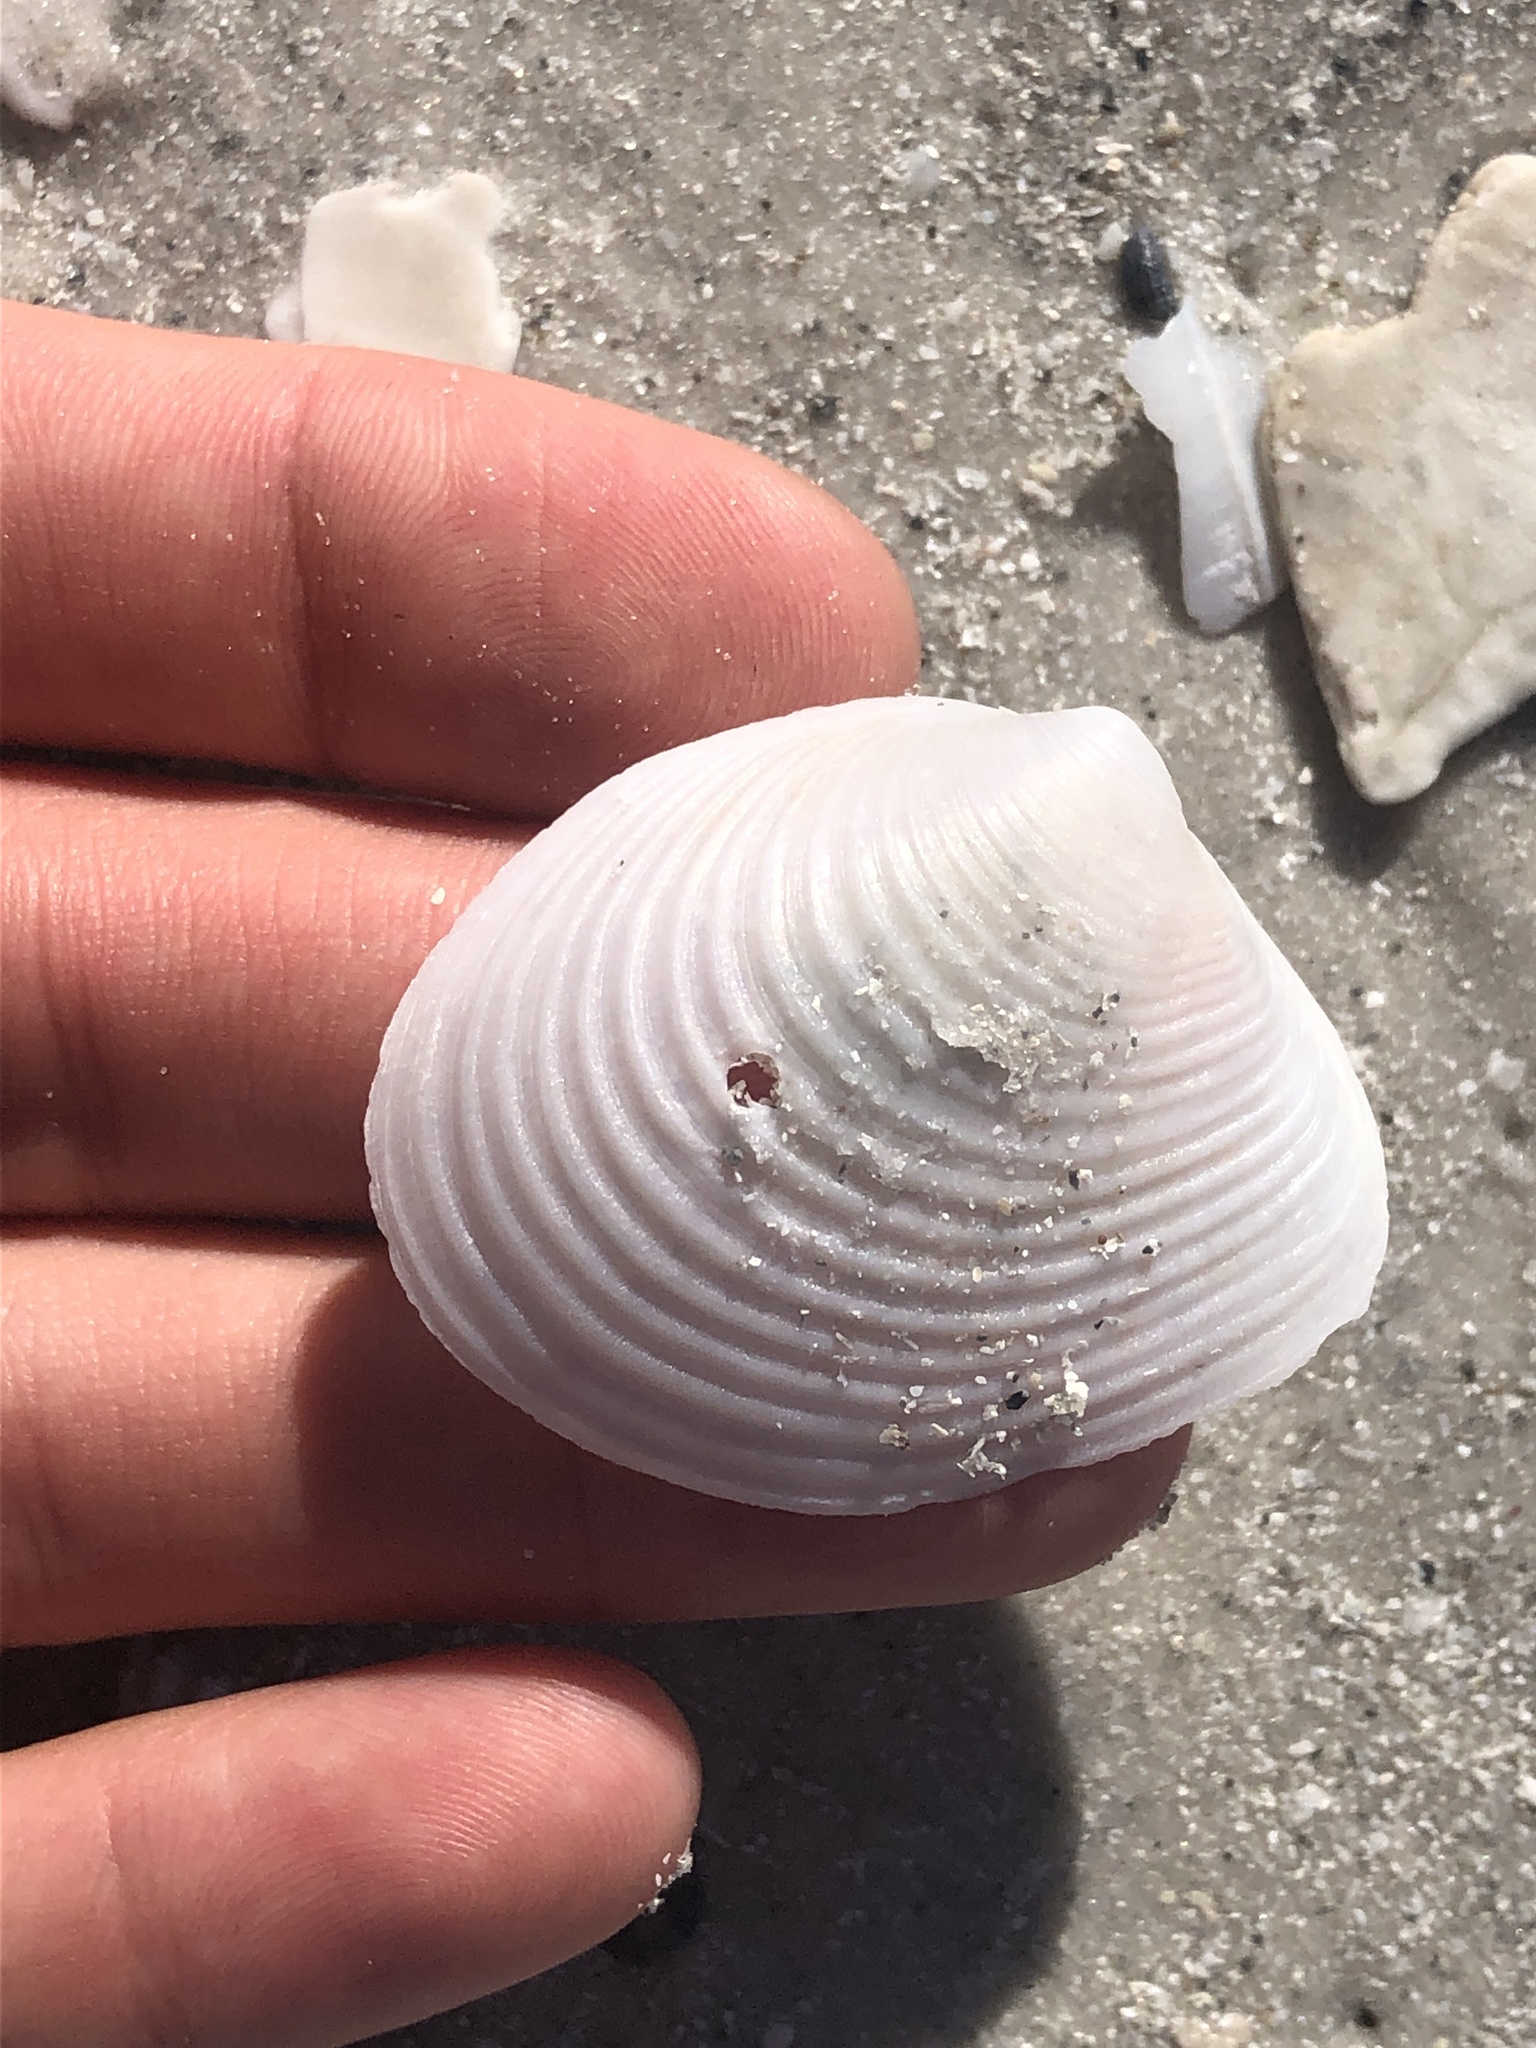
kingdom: Animalia
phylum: Mollusca
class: Bivalvia
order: Venerida
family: Anatinellidae
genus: Raeta
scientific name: Raeta plicatella
